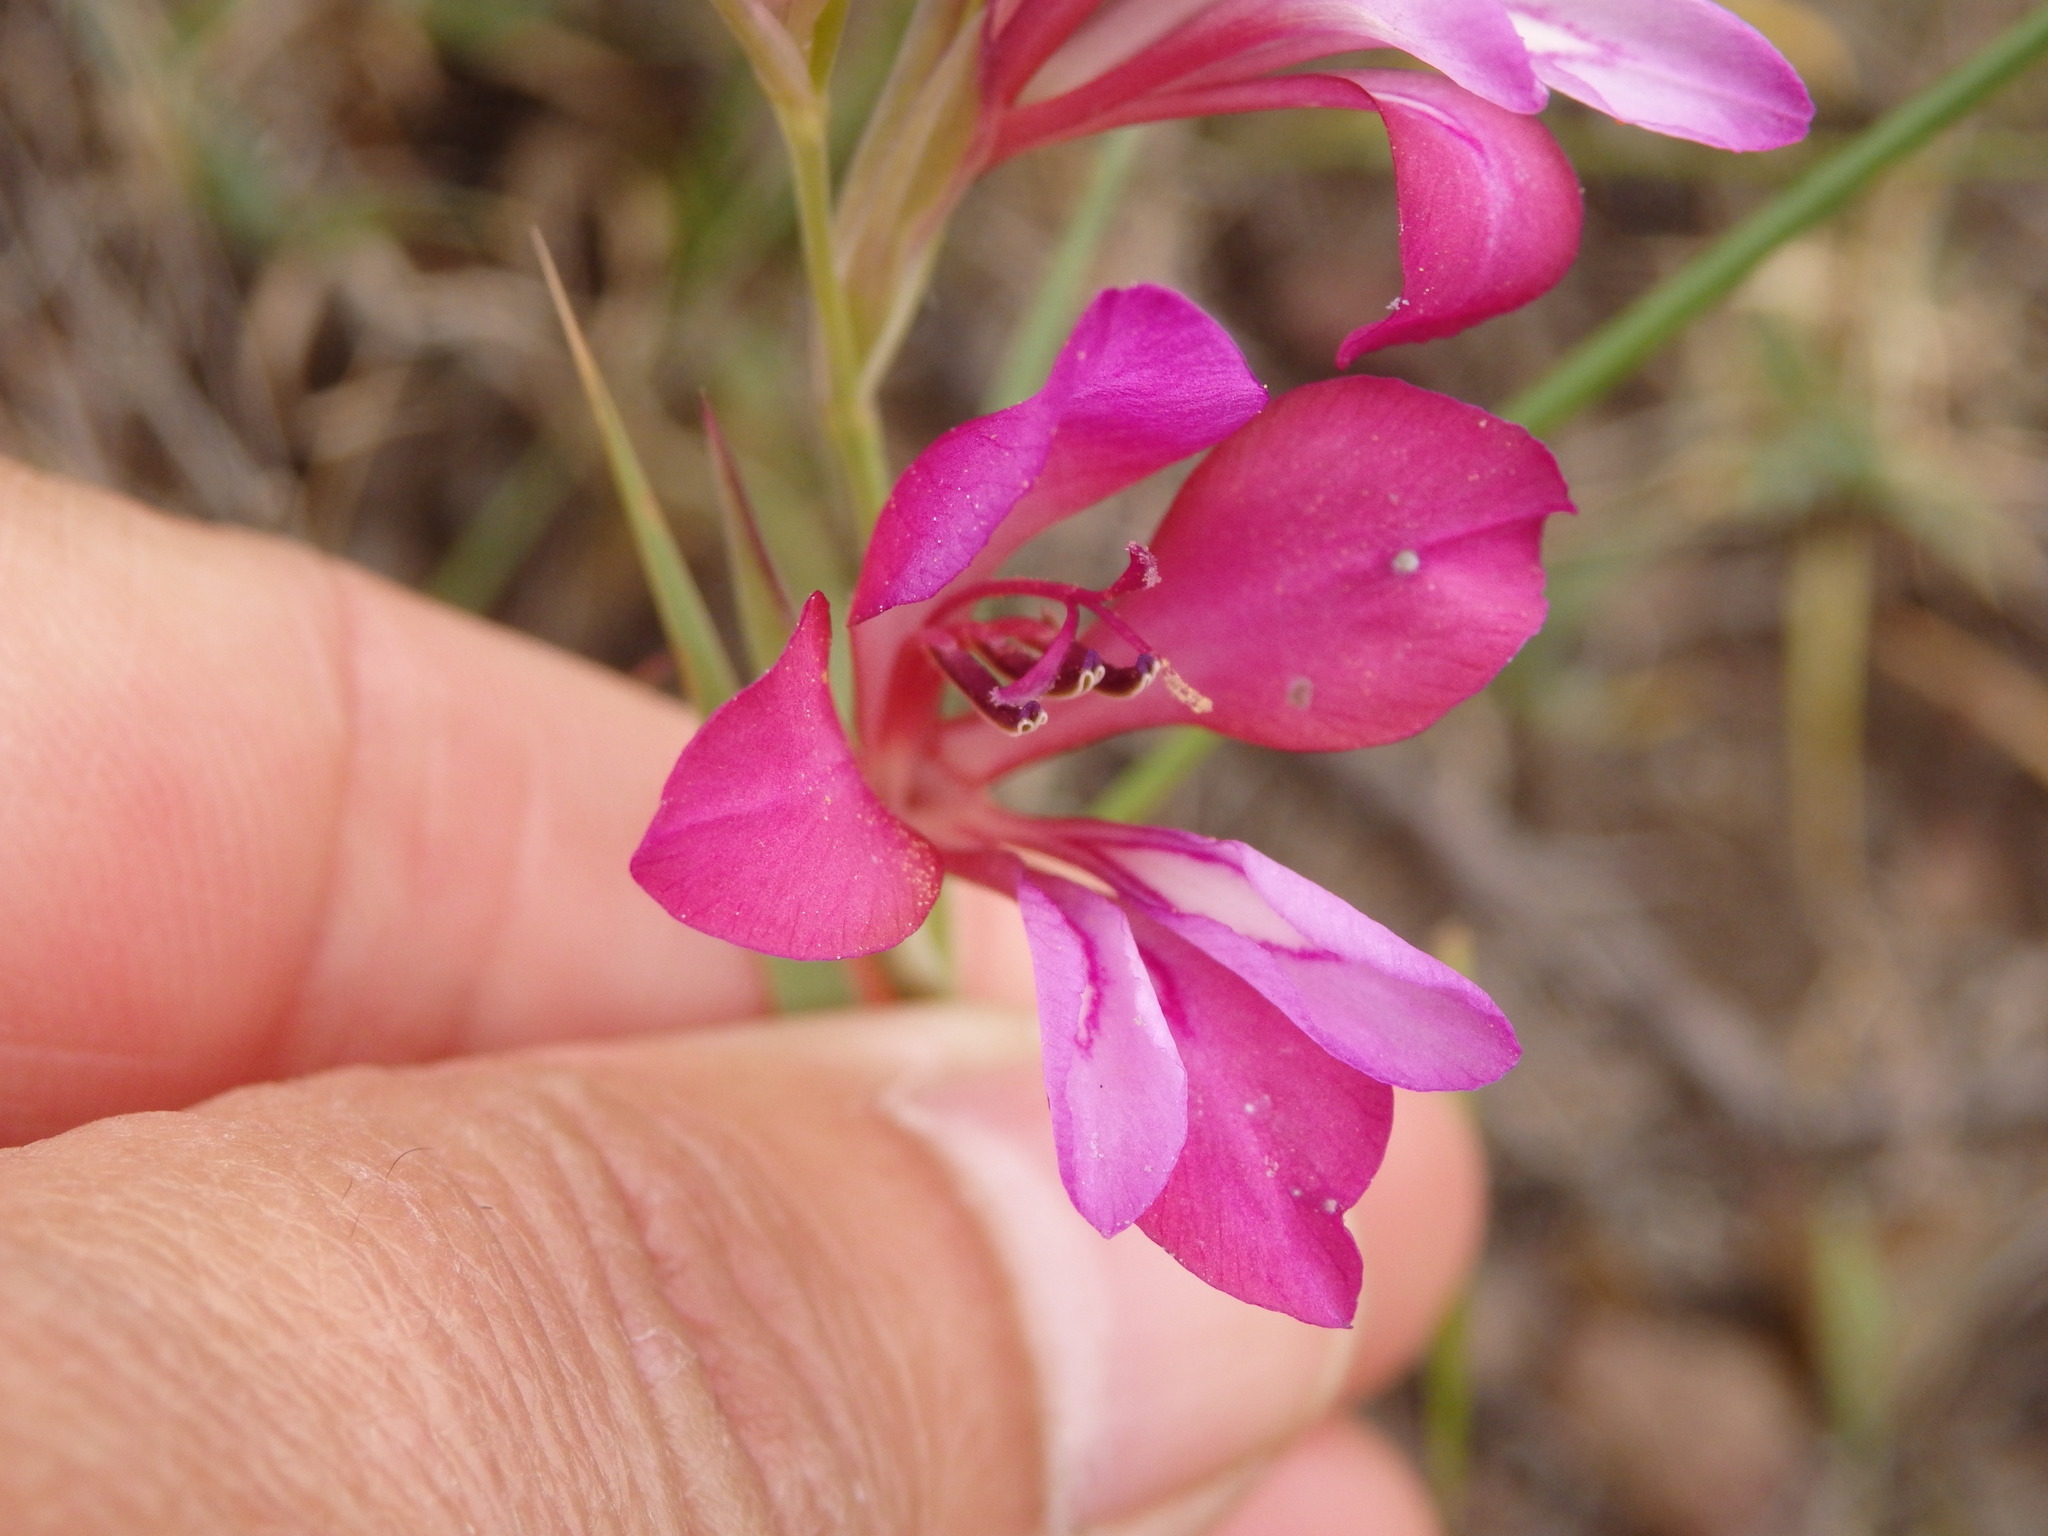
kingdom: Plantae
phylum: Tracheophyta
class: Liliopsida
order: Asparagales
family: Iridaceae
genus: Gladiolus
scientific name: Gladiolus illyricus
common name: Wild gladiolus
